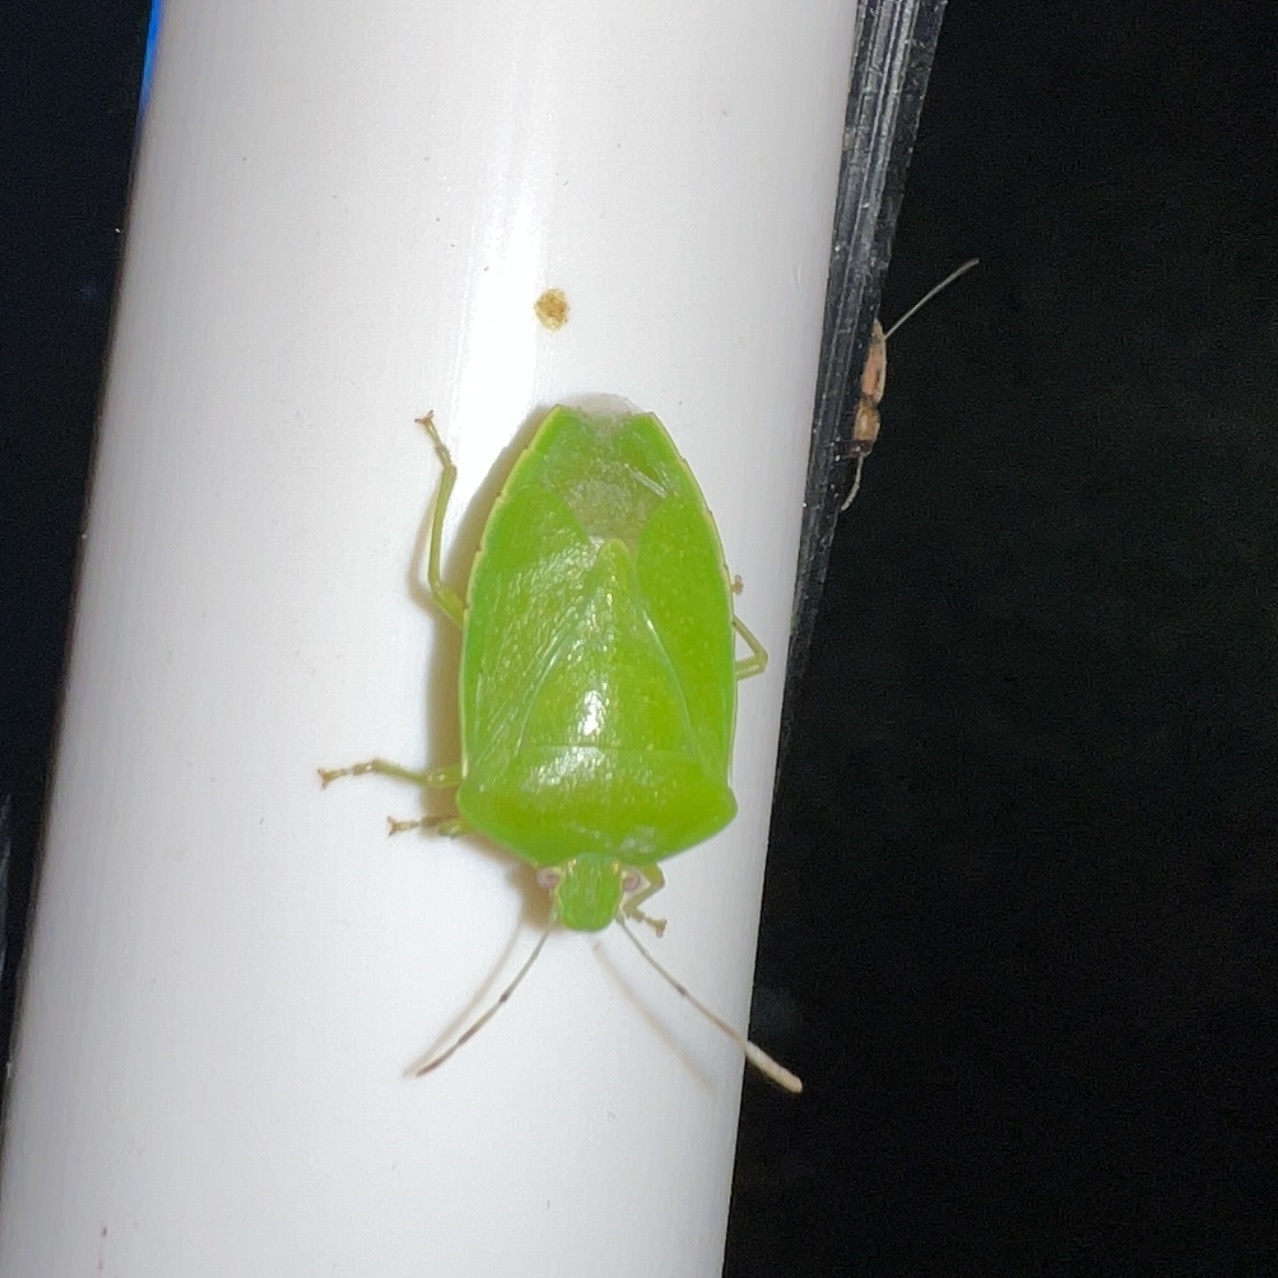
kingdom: Animalia
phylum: Arthropoda
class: Insecta
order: Hemiptera
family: Pentatomidae
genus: Chinavia
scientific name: Chinavia hilaris
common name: Green stink bug
